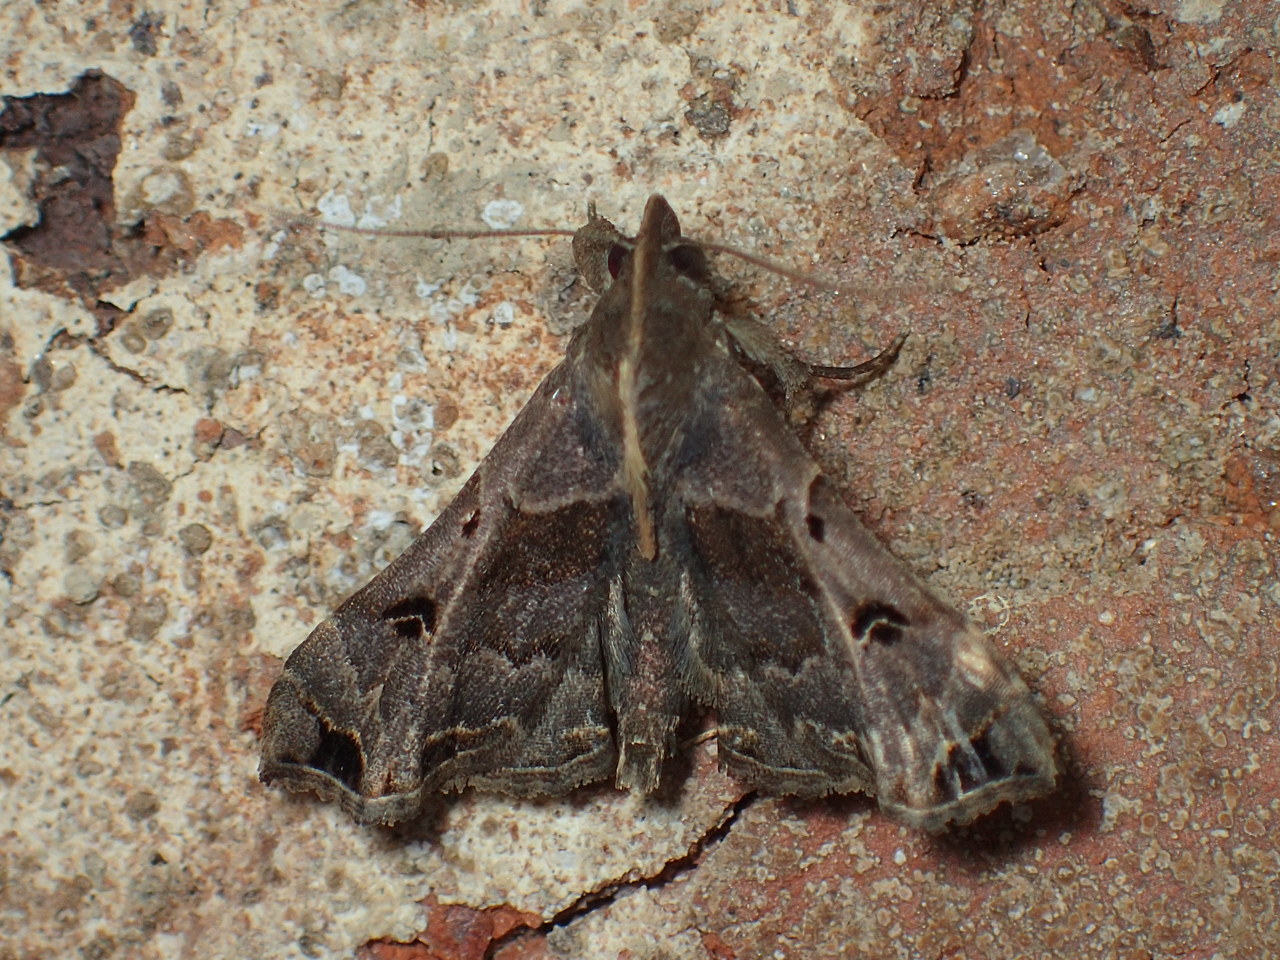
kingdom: Animalia
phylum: Arthropoda
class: Insecta
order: Lepidoptera
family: Erebidae
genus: Palthis
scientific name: Palthis asopialis
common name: Faint-spotted palthis moth
